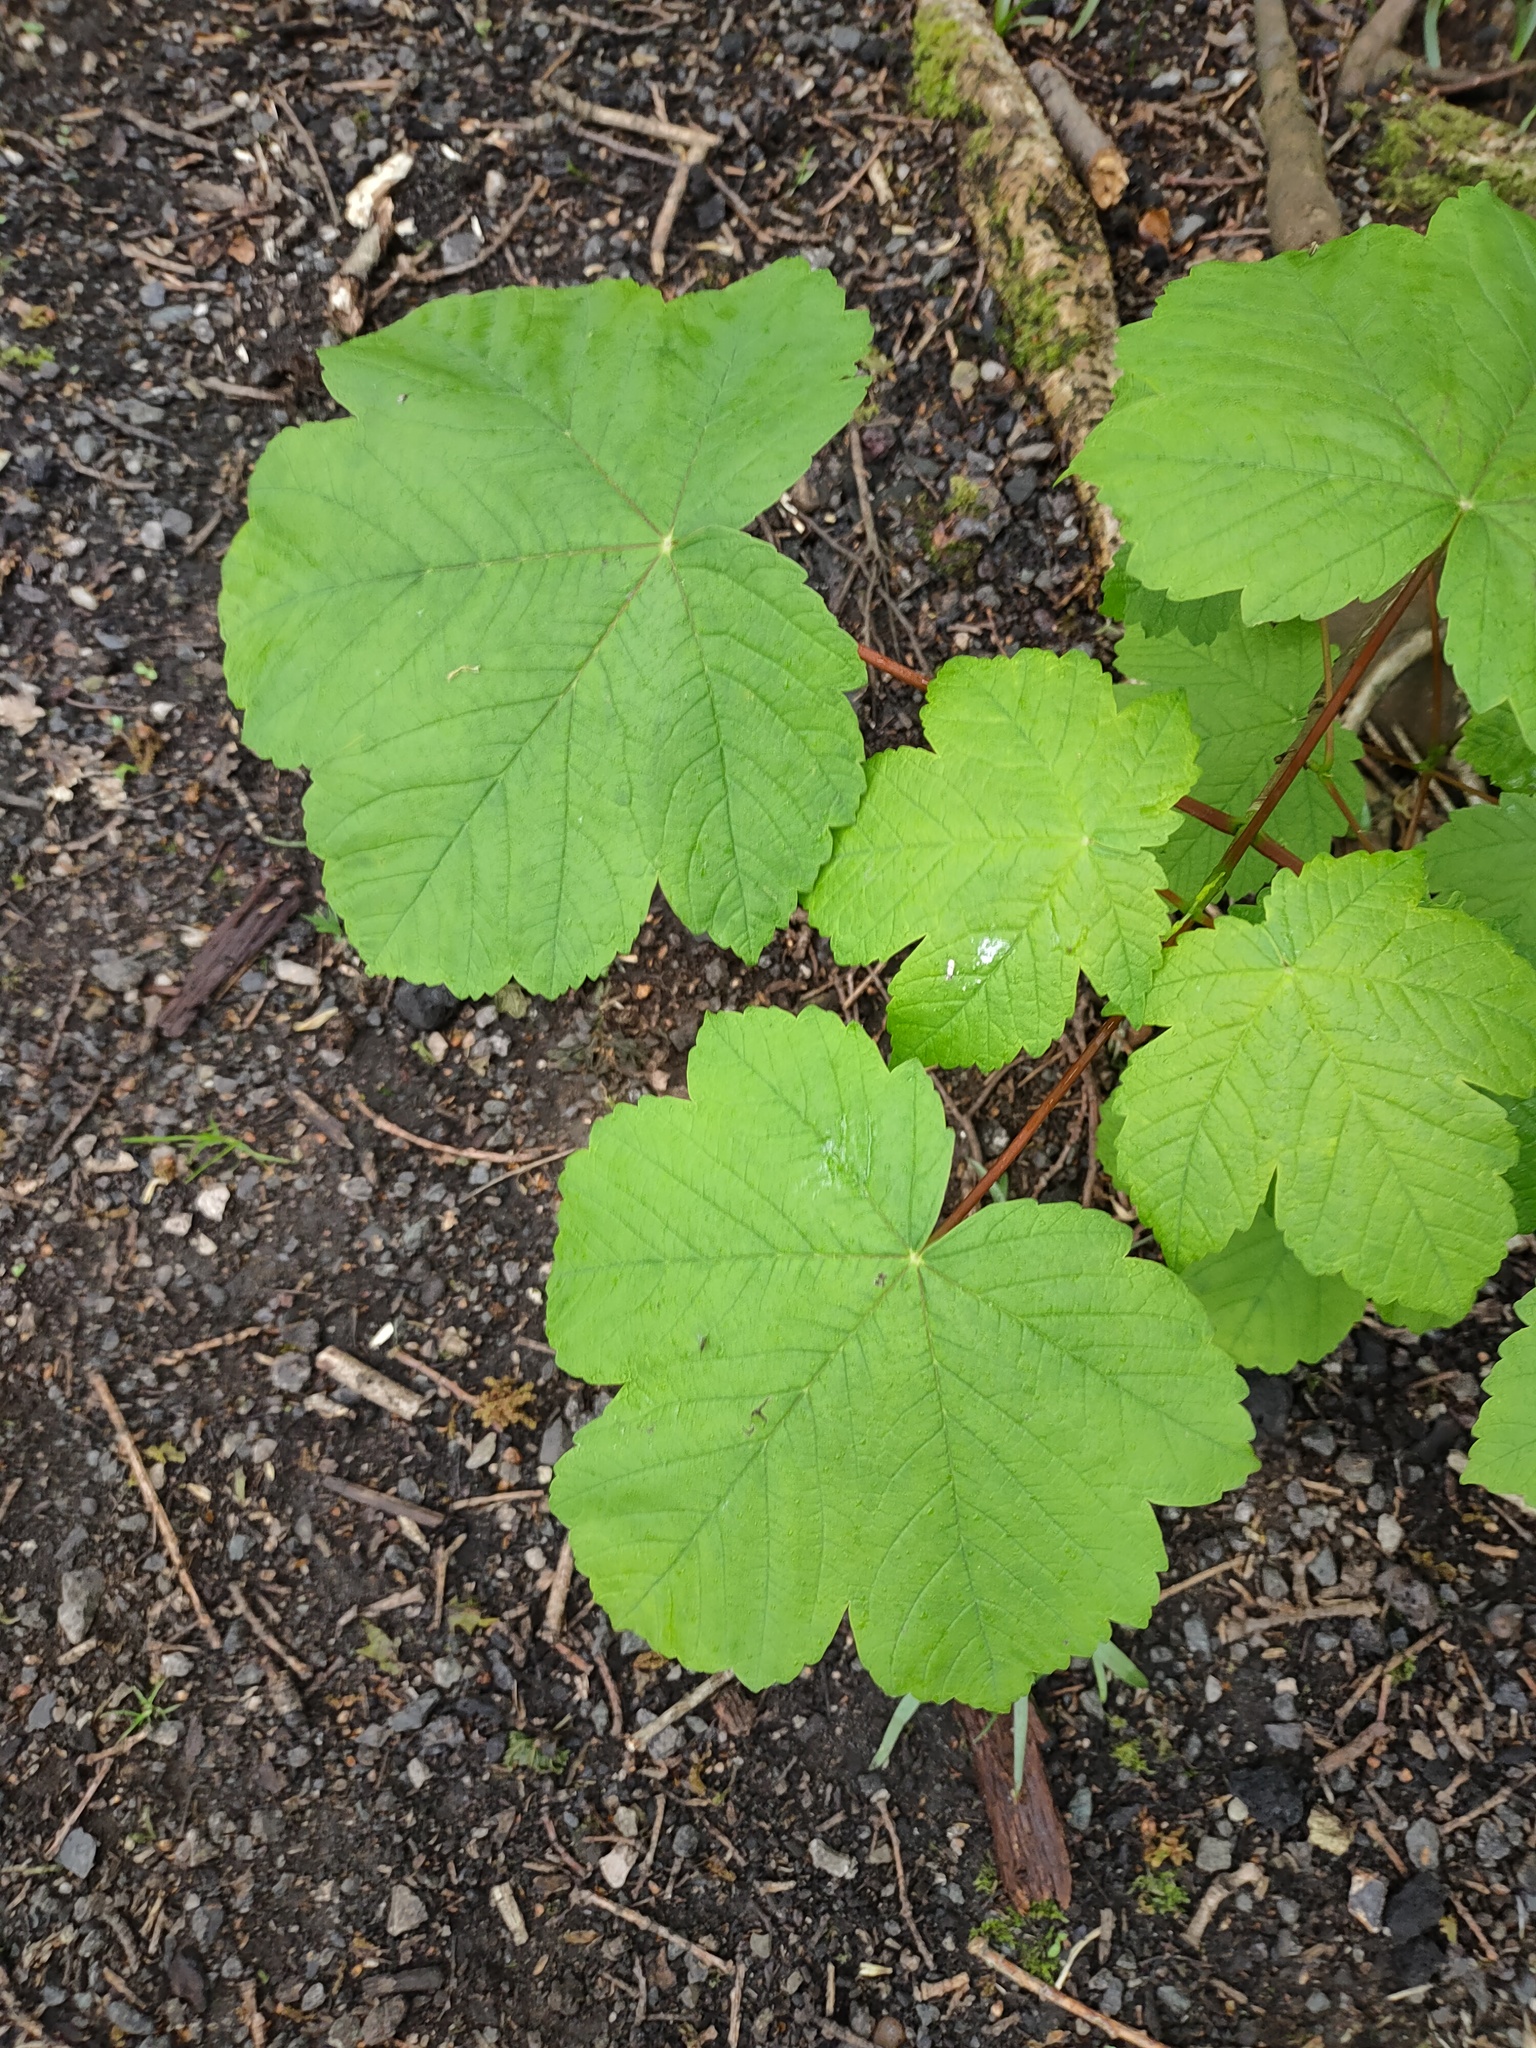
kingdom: Plantae
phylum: Tracheophyta
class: Magnoliopsida
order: Sapindales
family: Sapindaceae
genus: Acer
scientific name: Acer pseudoplatanus
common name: Sycamore
